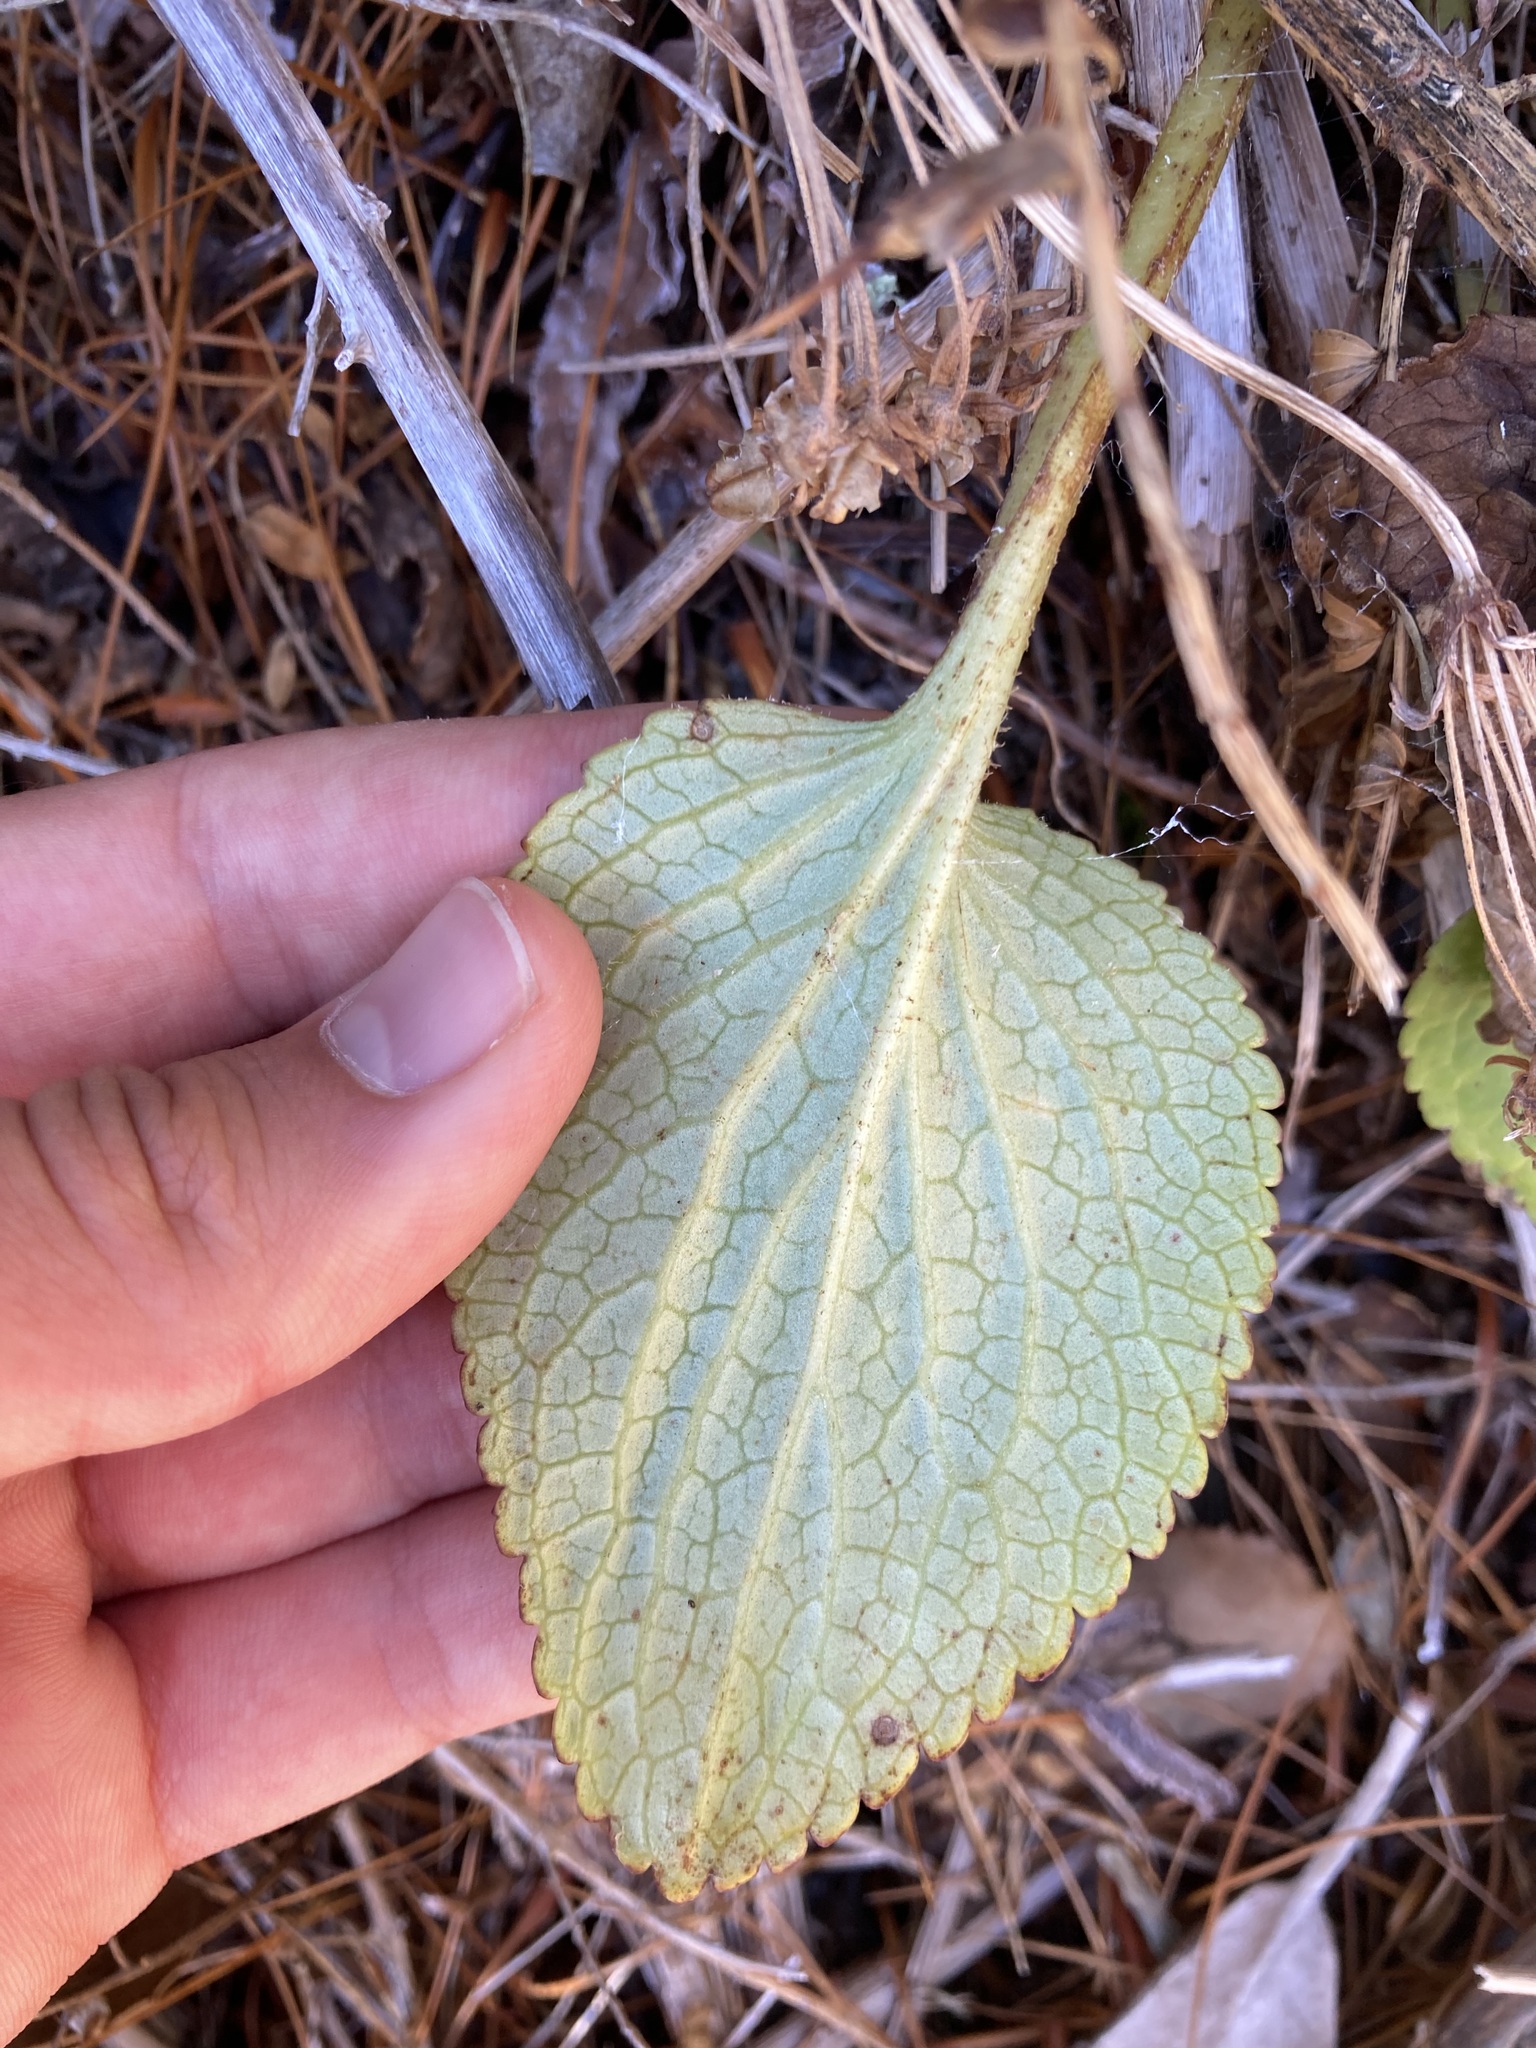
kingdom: Plantae
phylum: Tracheophyta
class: Magnoliopsida
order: Lamiales
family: Plantaginaceae
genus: Ourisia
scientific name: Ourisia macrophylla
